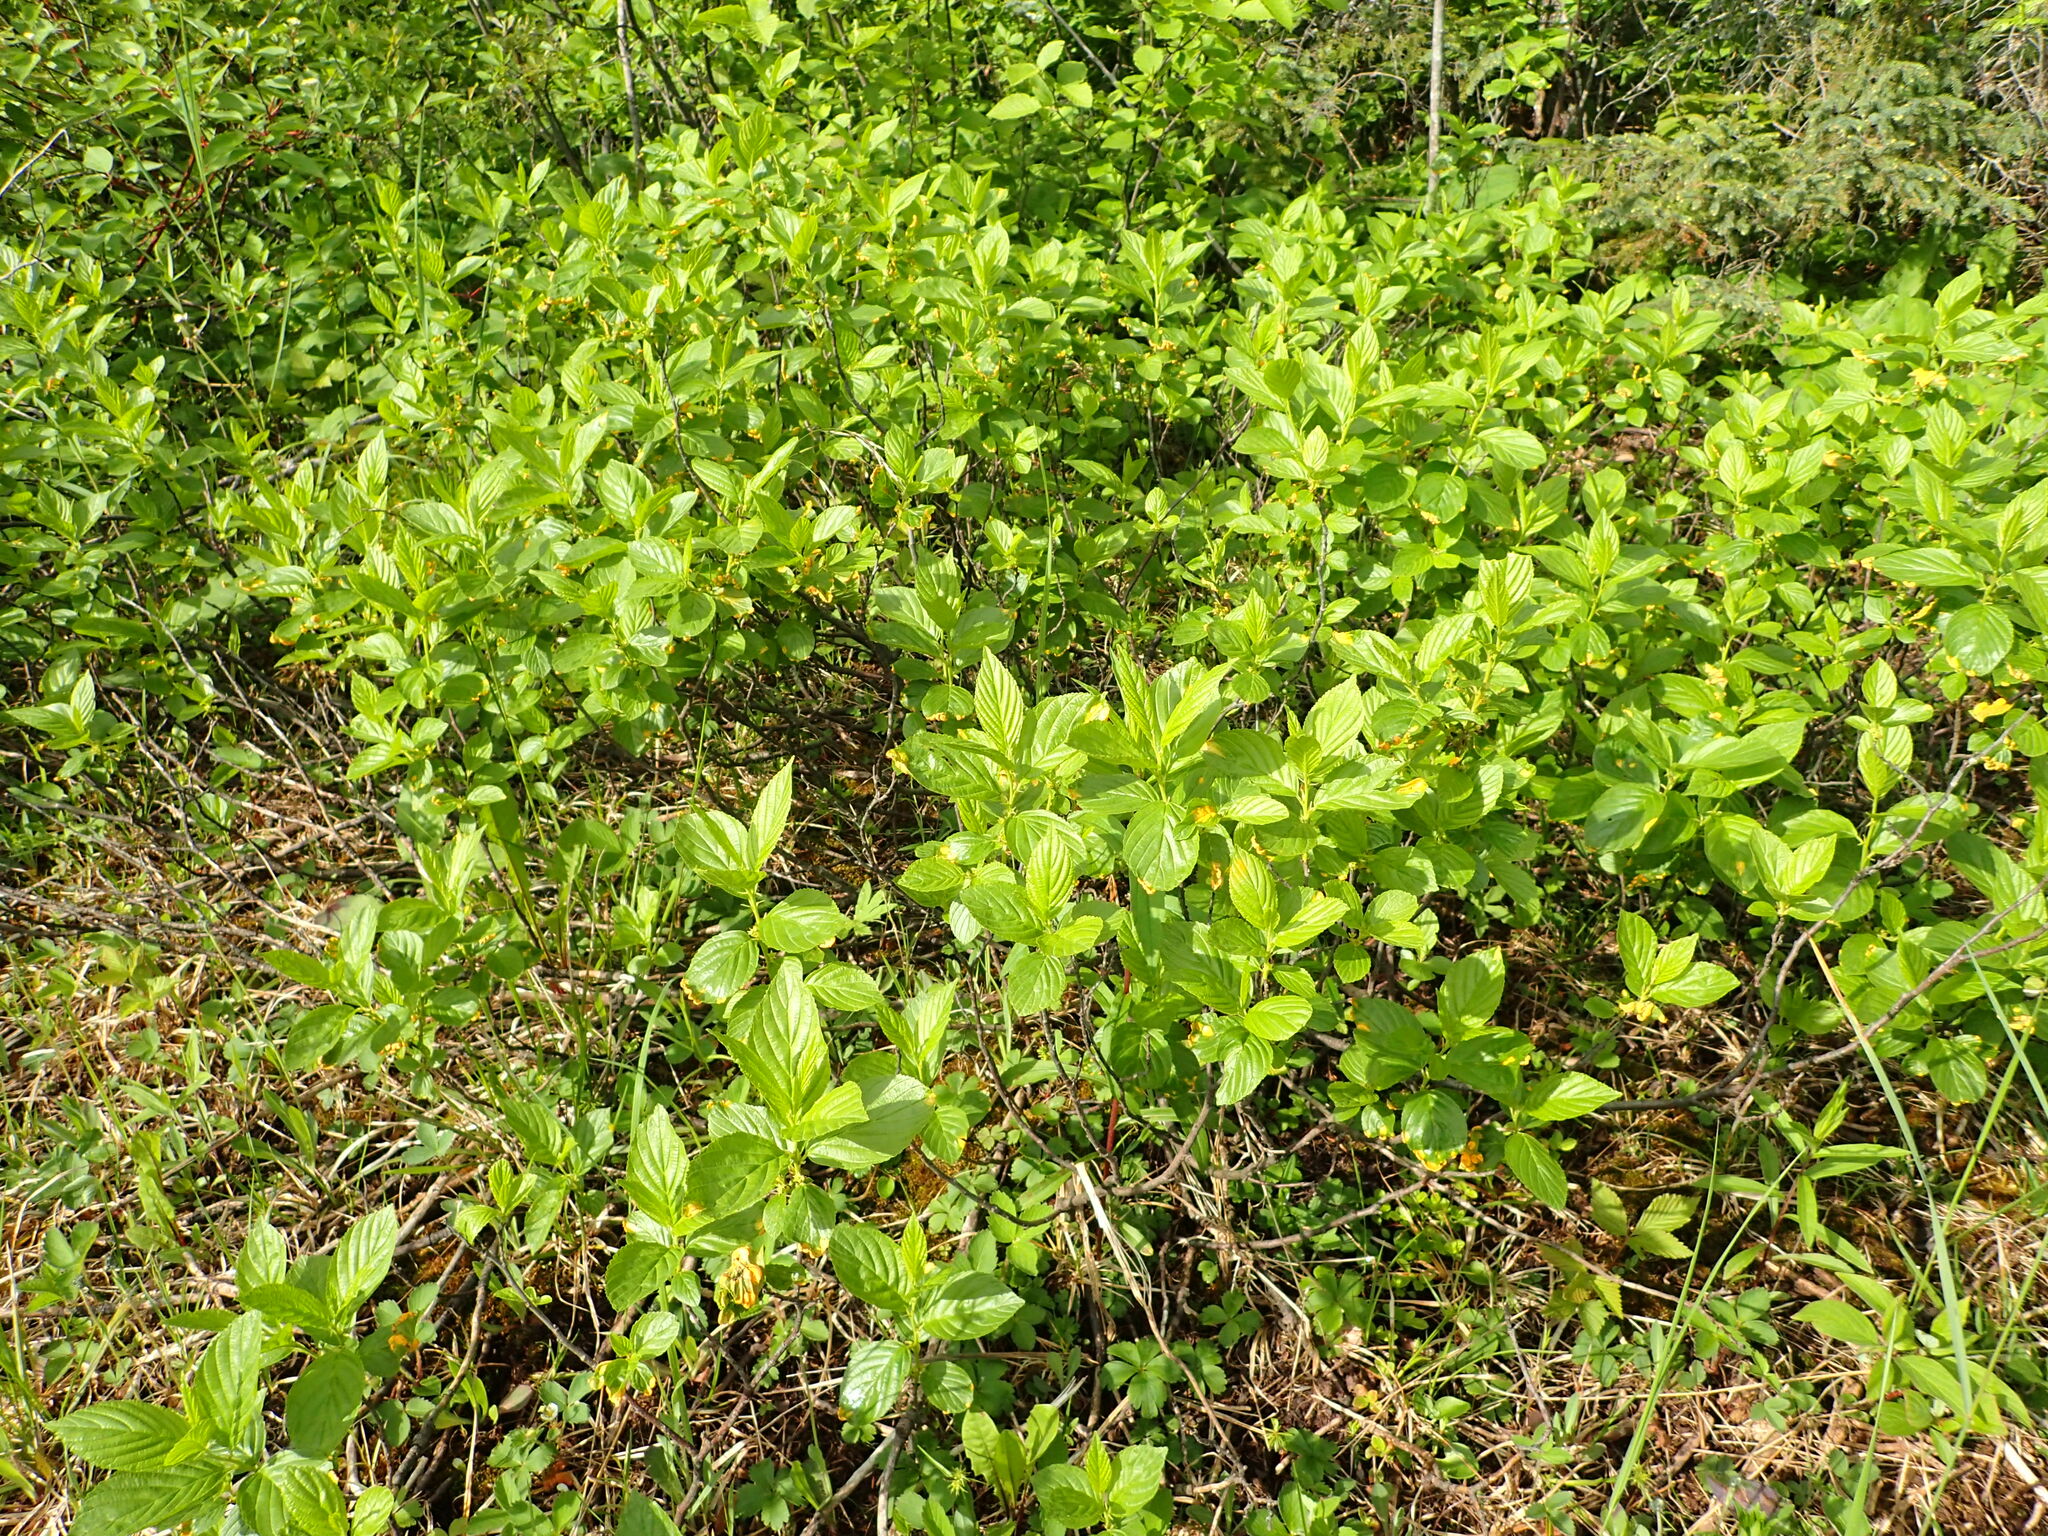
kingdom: Plantae
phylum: Tracheophyta
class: Magnoliopsida
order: Rosales
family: Rhamnaceae
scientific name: Rhamnaceae
